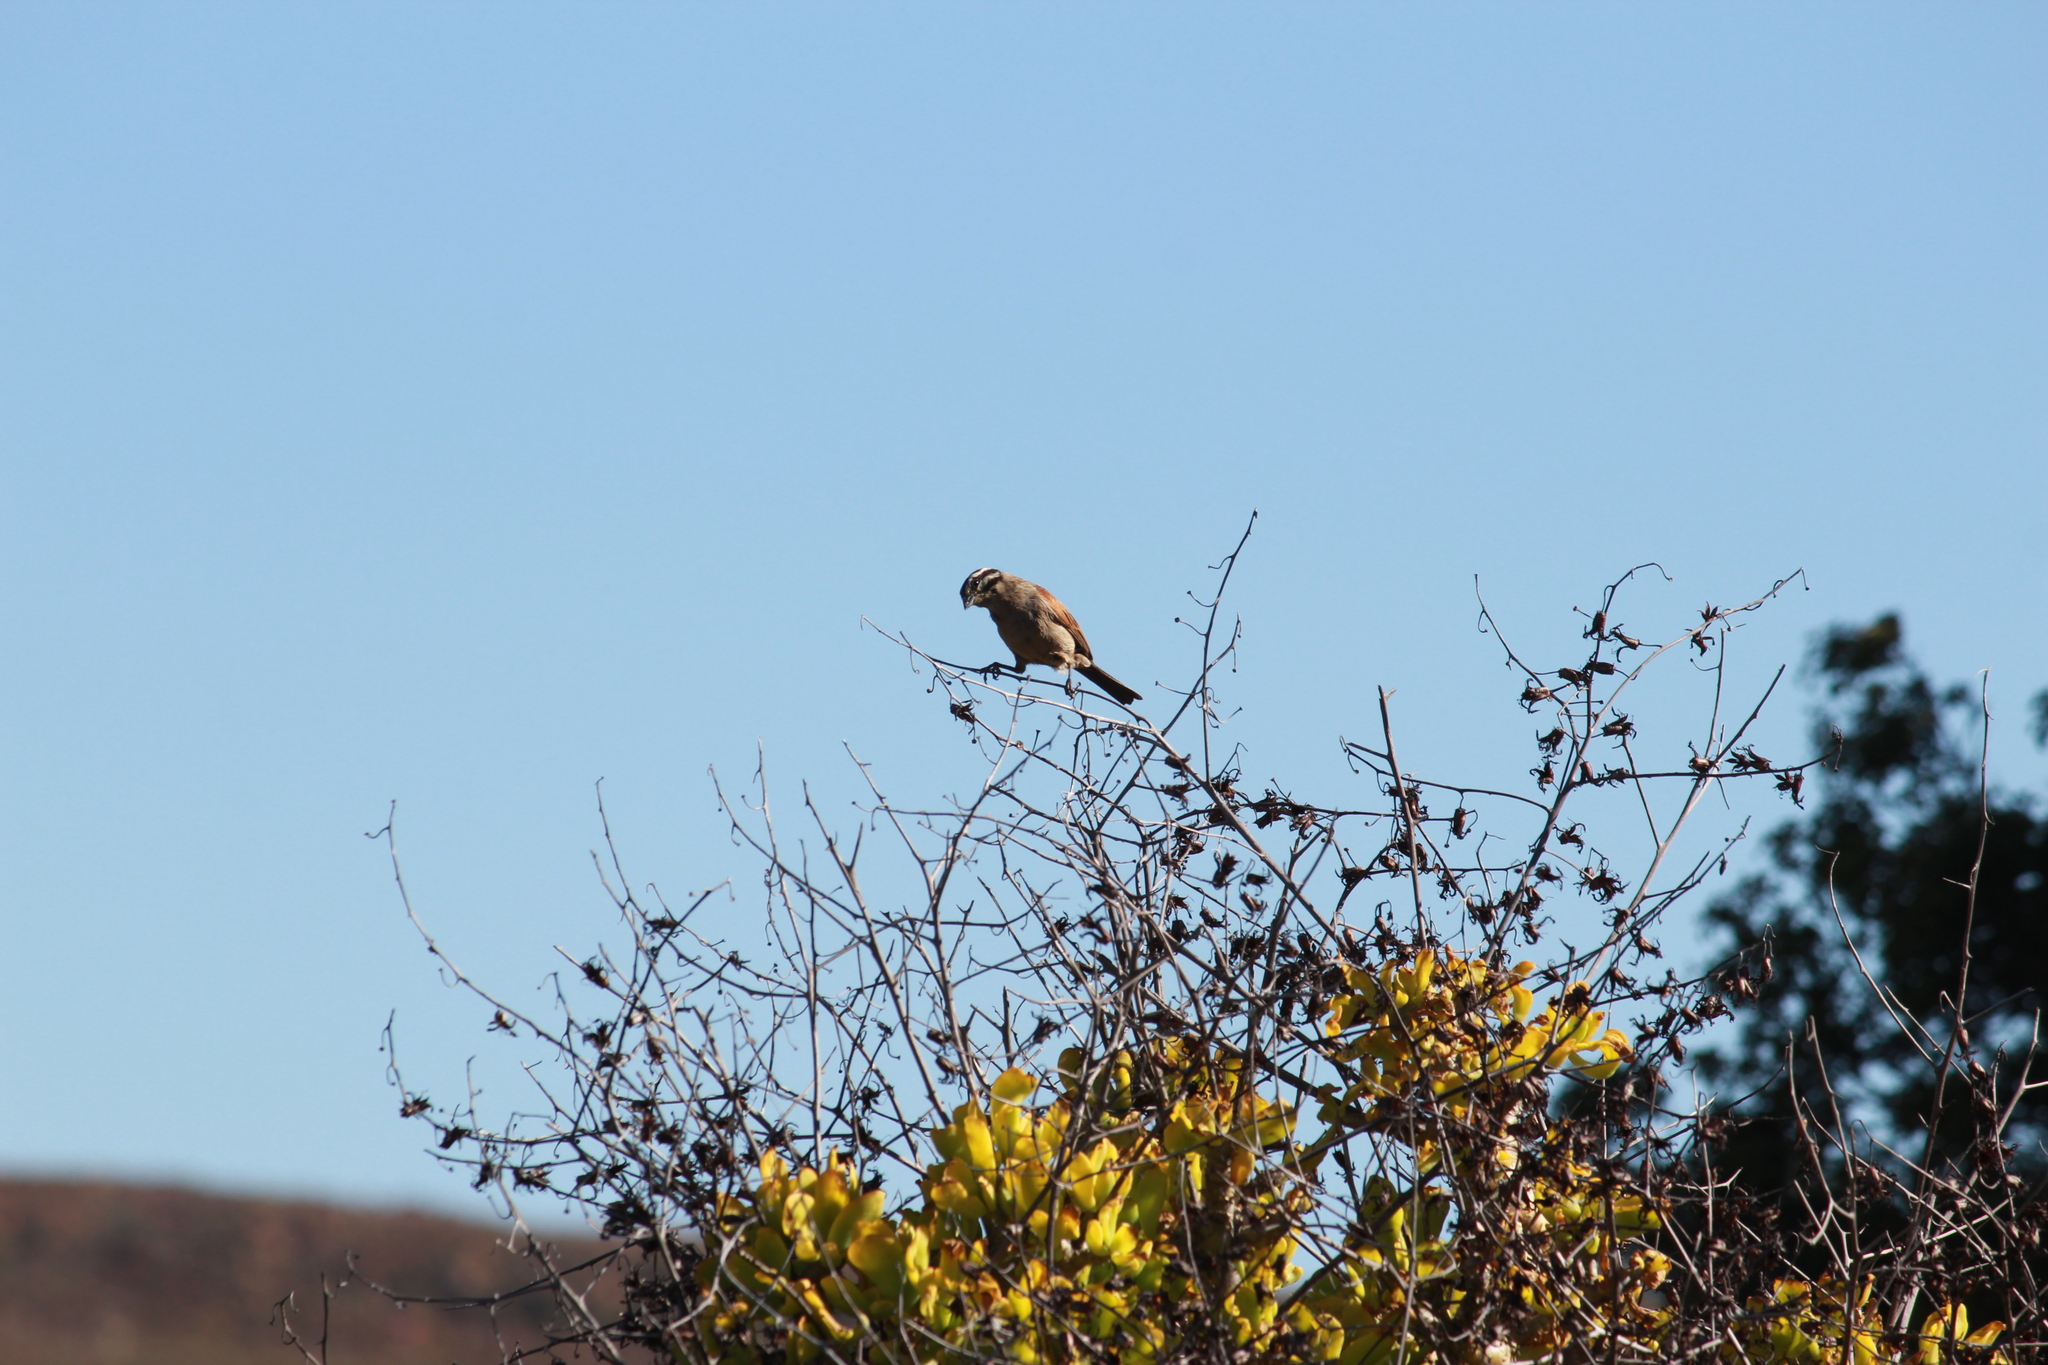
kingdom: Animalia
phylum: Chordata
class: Aves
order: Passeriformes
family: Emberizidae
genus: Emberiza
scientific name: Emberiza capensis
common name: Cape bunting
